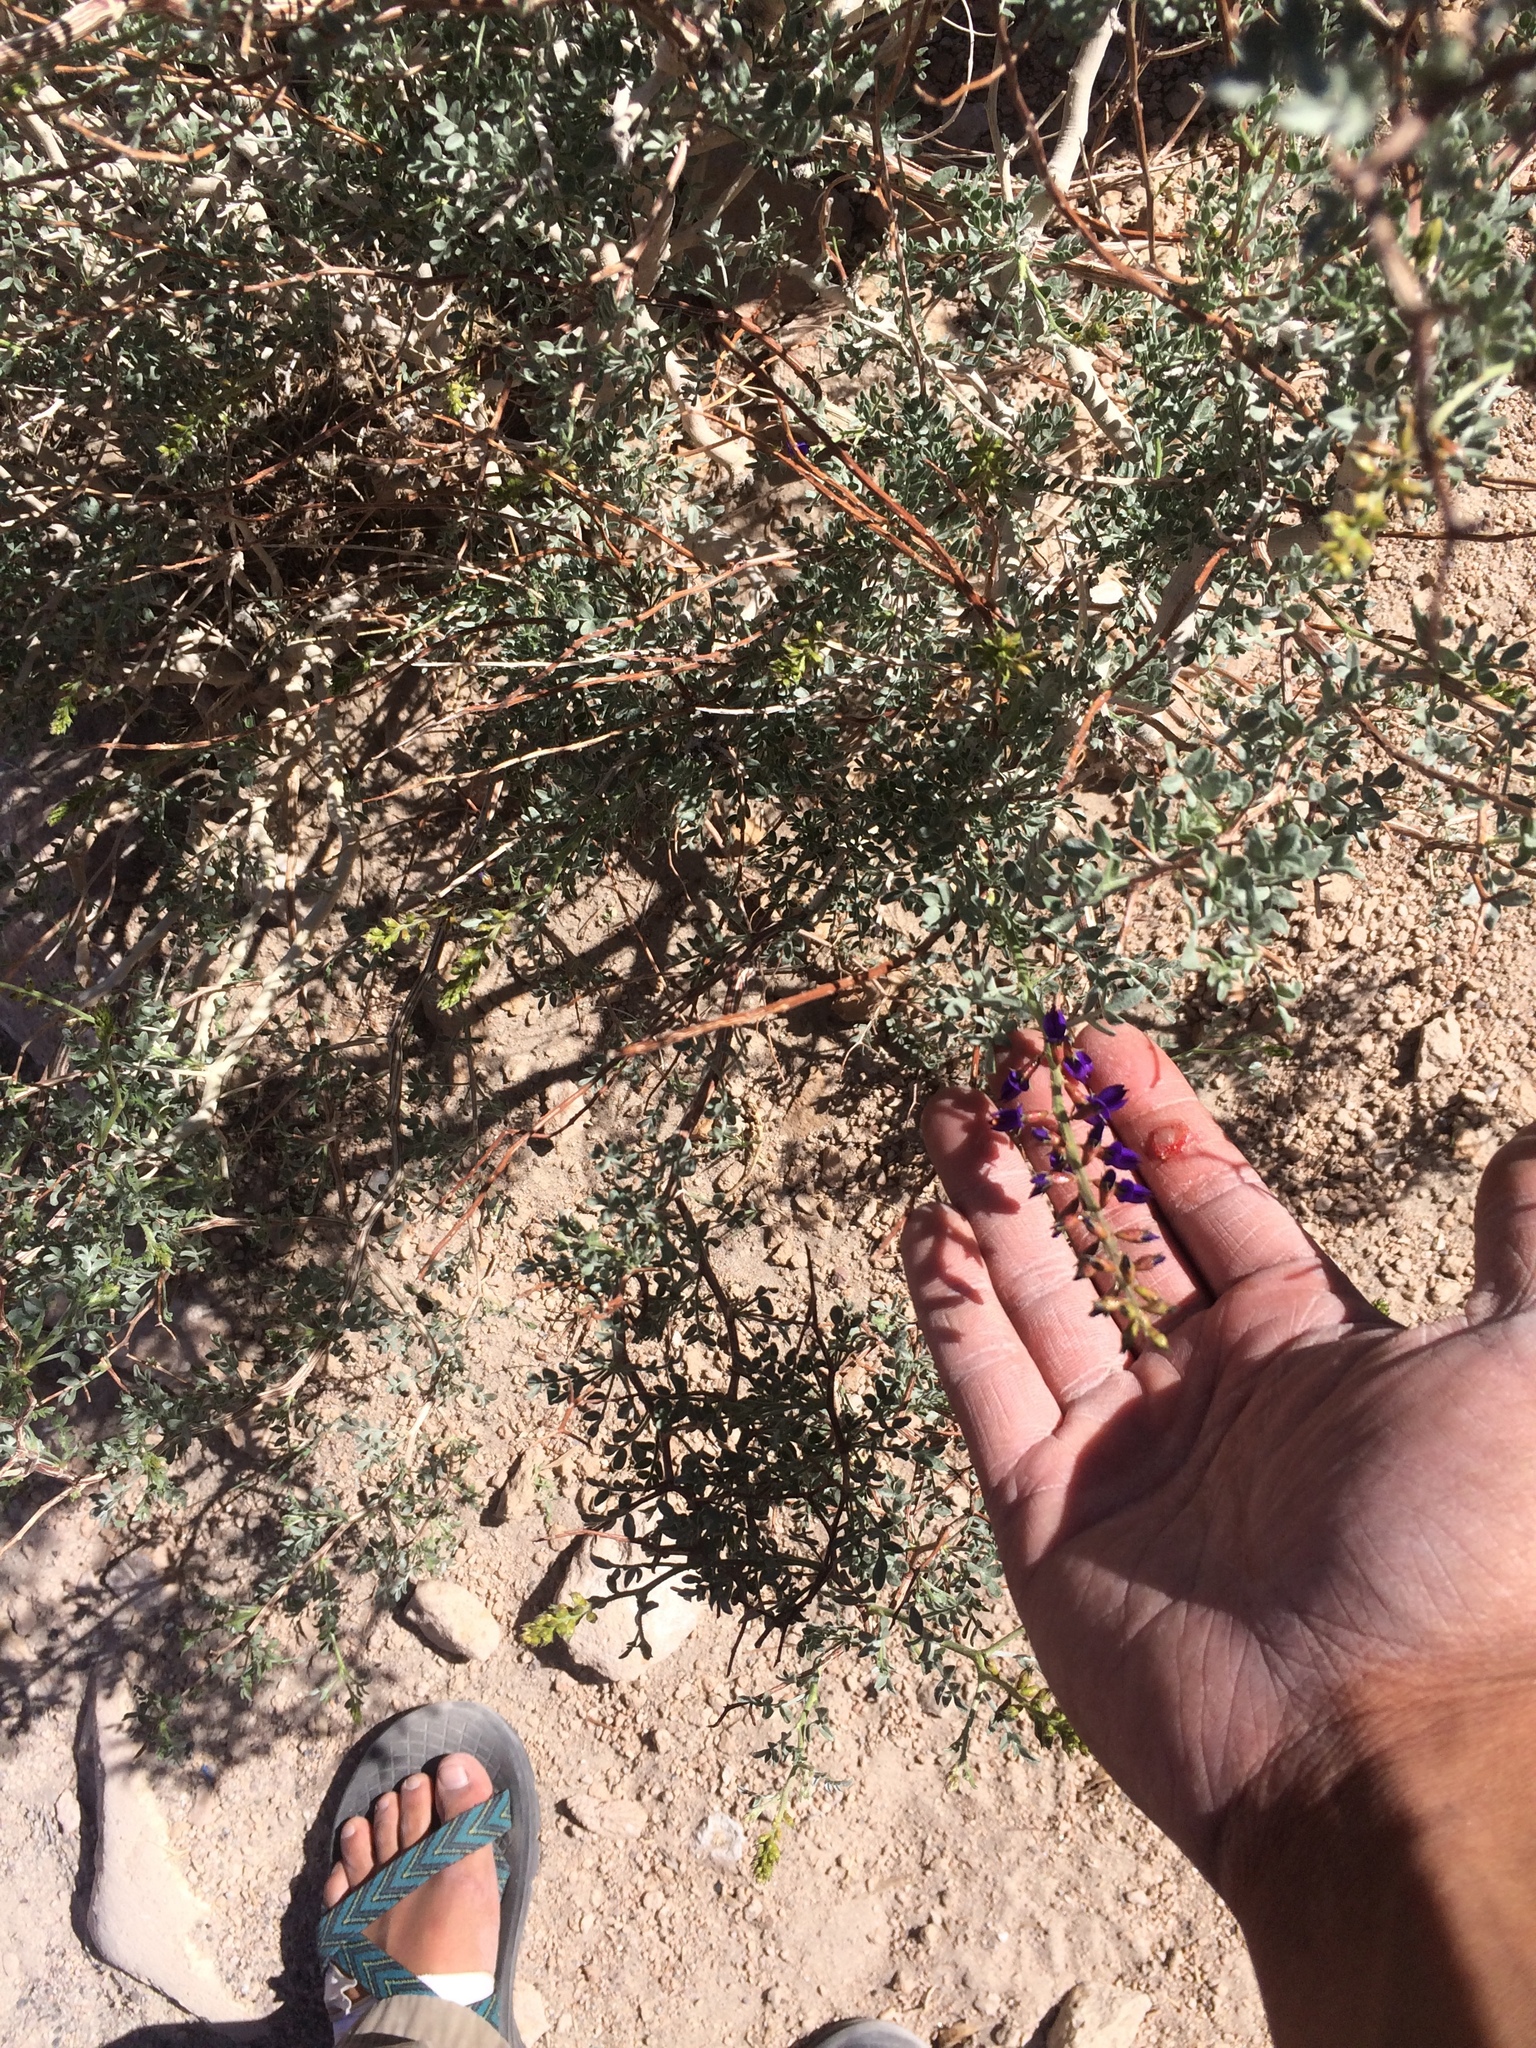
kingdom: Plantae
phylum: Tracheophyta
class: Magnoliopsida
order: Fabales
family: Fabaceae
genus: Psorothamnus
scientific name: Psorothamnus arborescens
